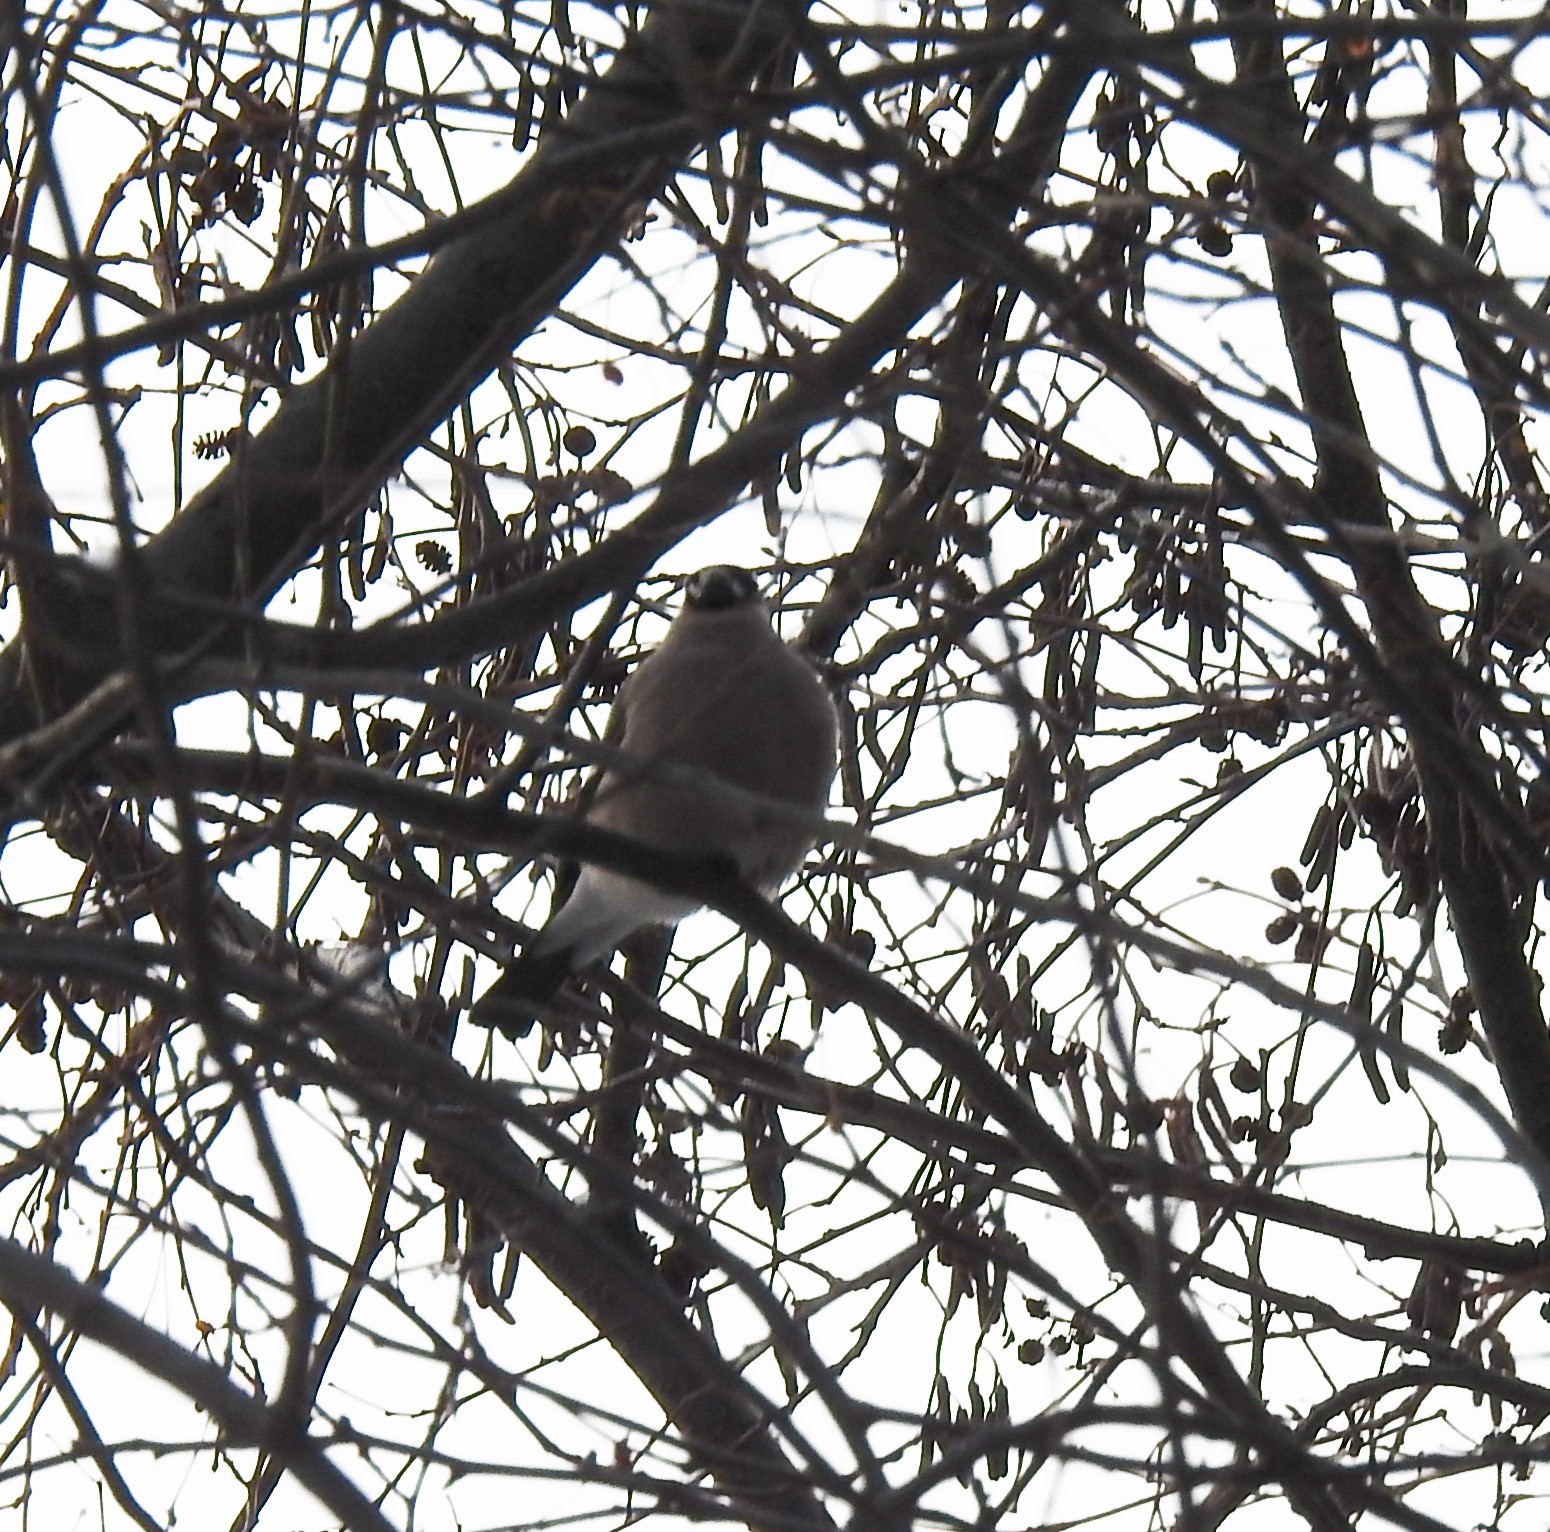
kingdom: Animalia
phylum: Chordata
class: Aves
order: Passeriformes
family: Fringillidae
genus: Pyrrhula
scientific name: Pyrrhula pyrrhula
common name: Eurasian bullfinch
